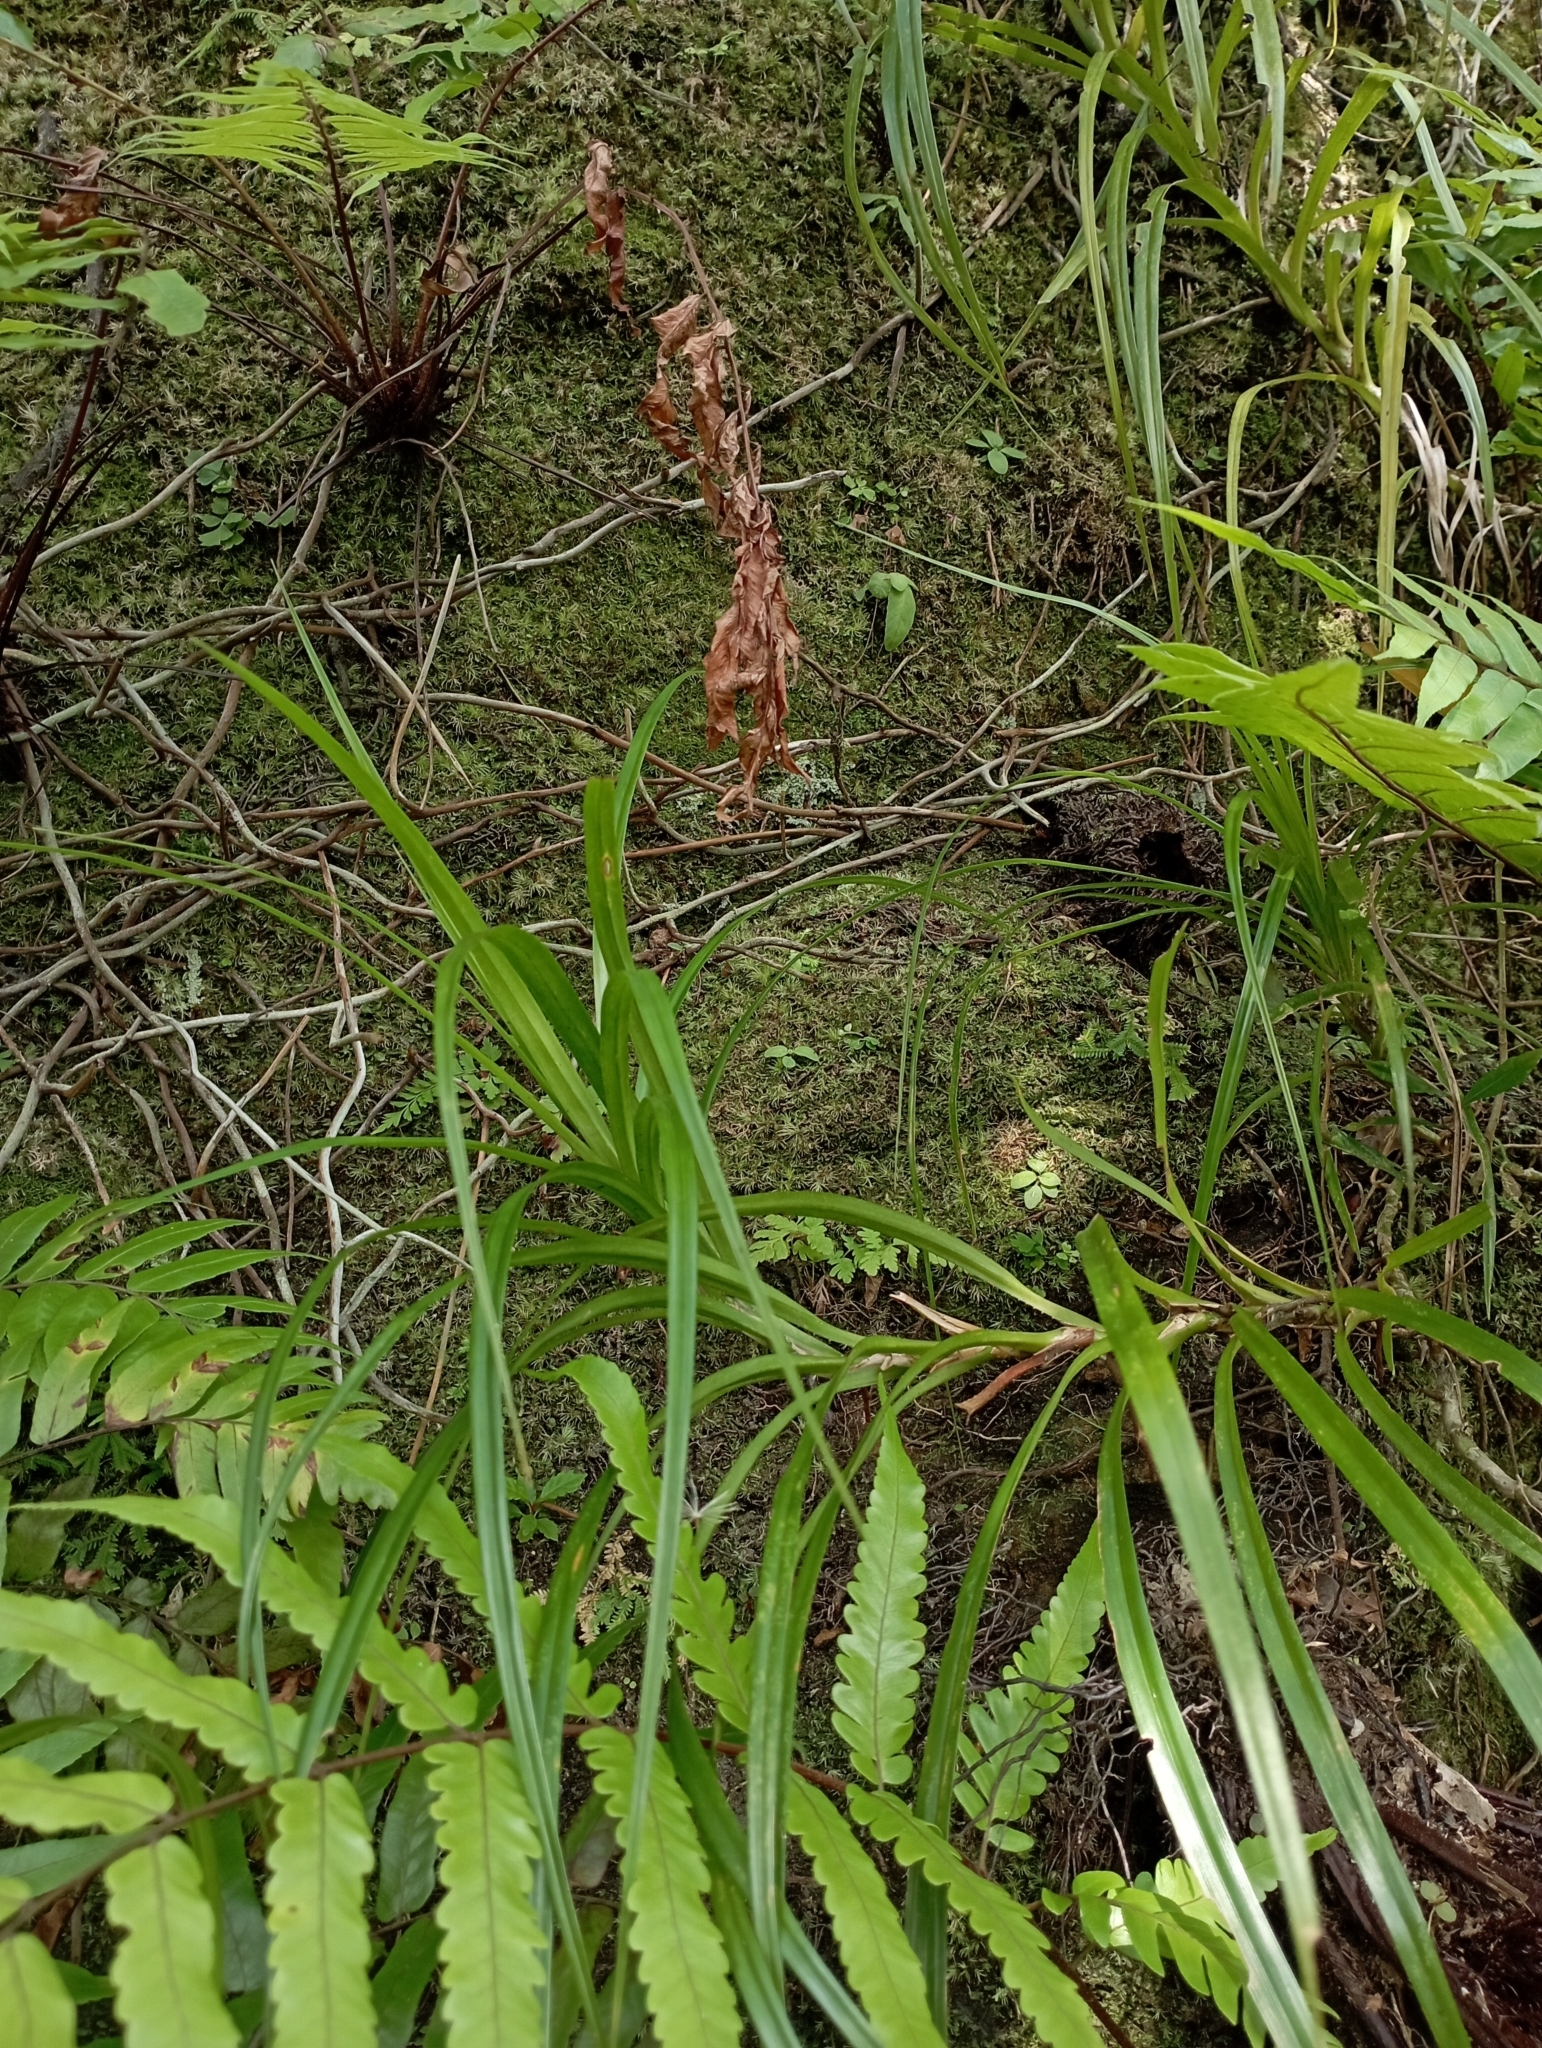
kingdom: Plantae
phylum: Tracheophyta
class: Liliopsida
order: Pandanales
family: Pandanaceae
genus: Freycinetia
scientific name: Freycinetia formosana
